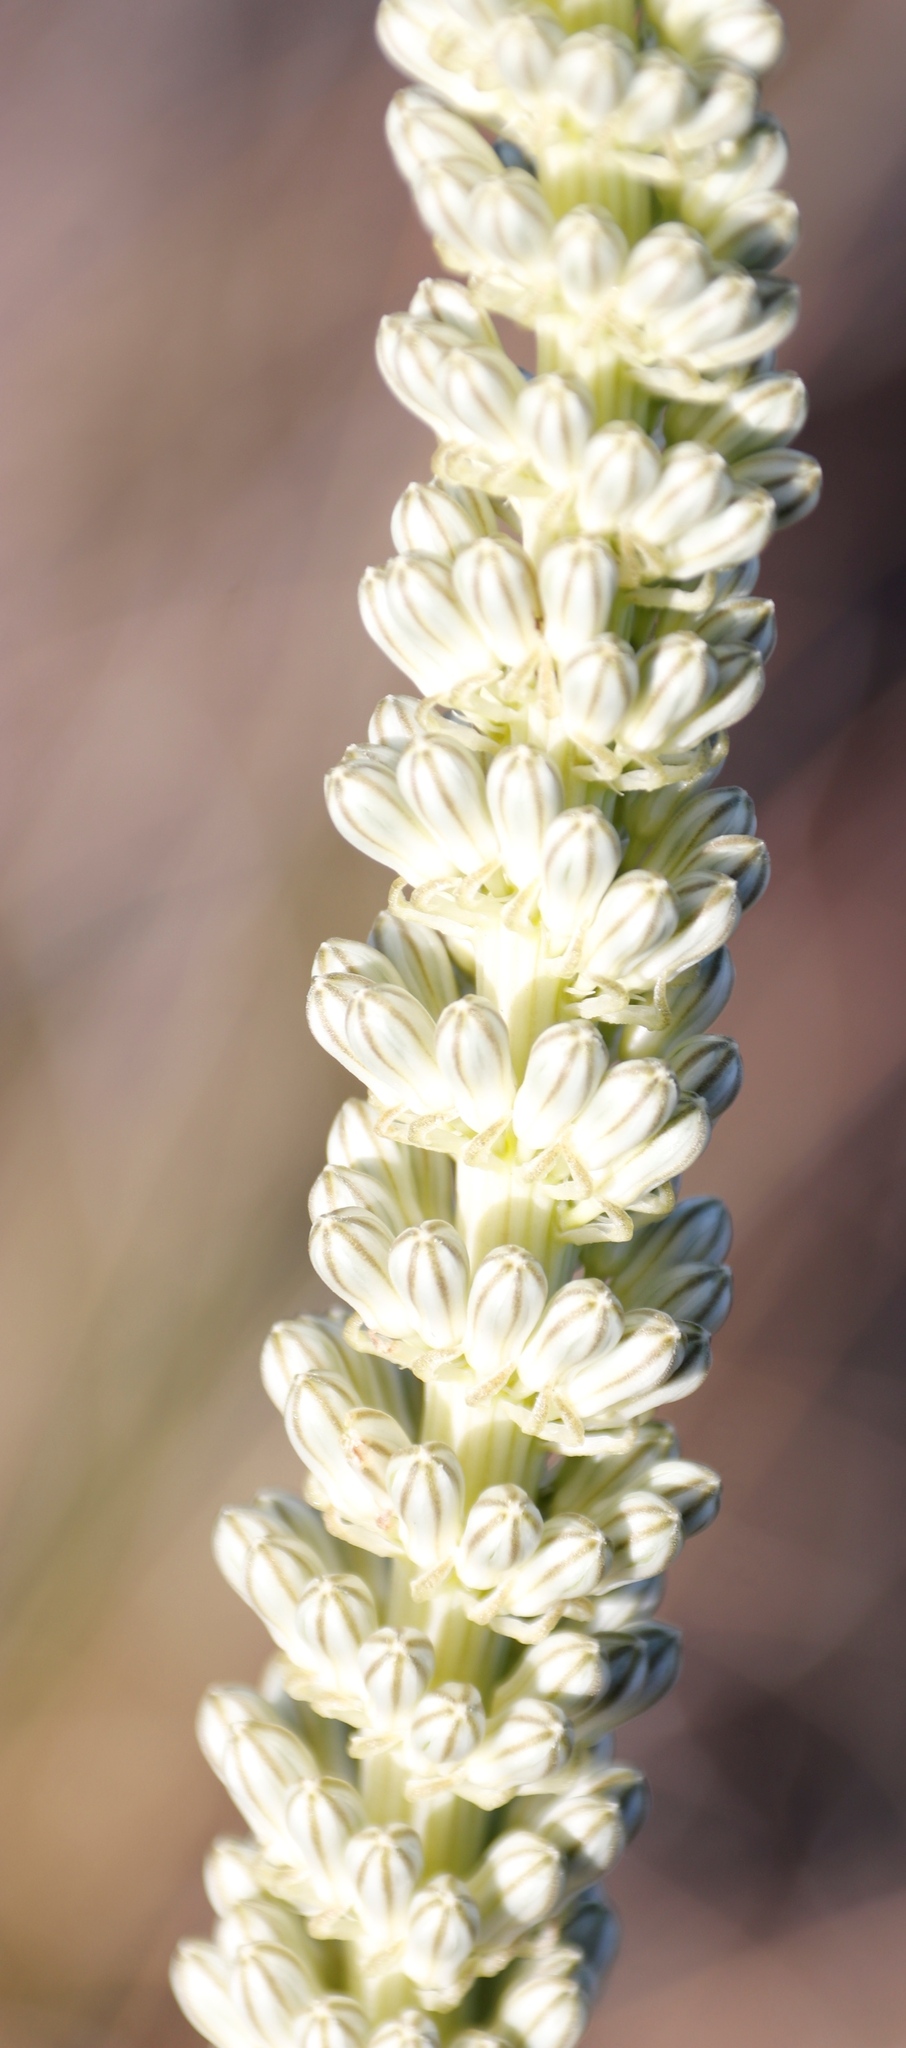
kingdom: Plantae
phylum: Tracheophyta
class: Liliopsida
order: Asparagales
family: Asparagaceae
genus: Drimia
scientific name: Drimia capensis
